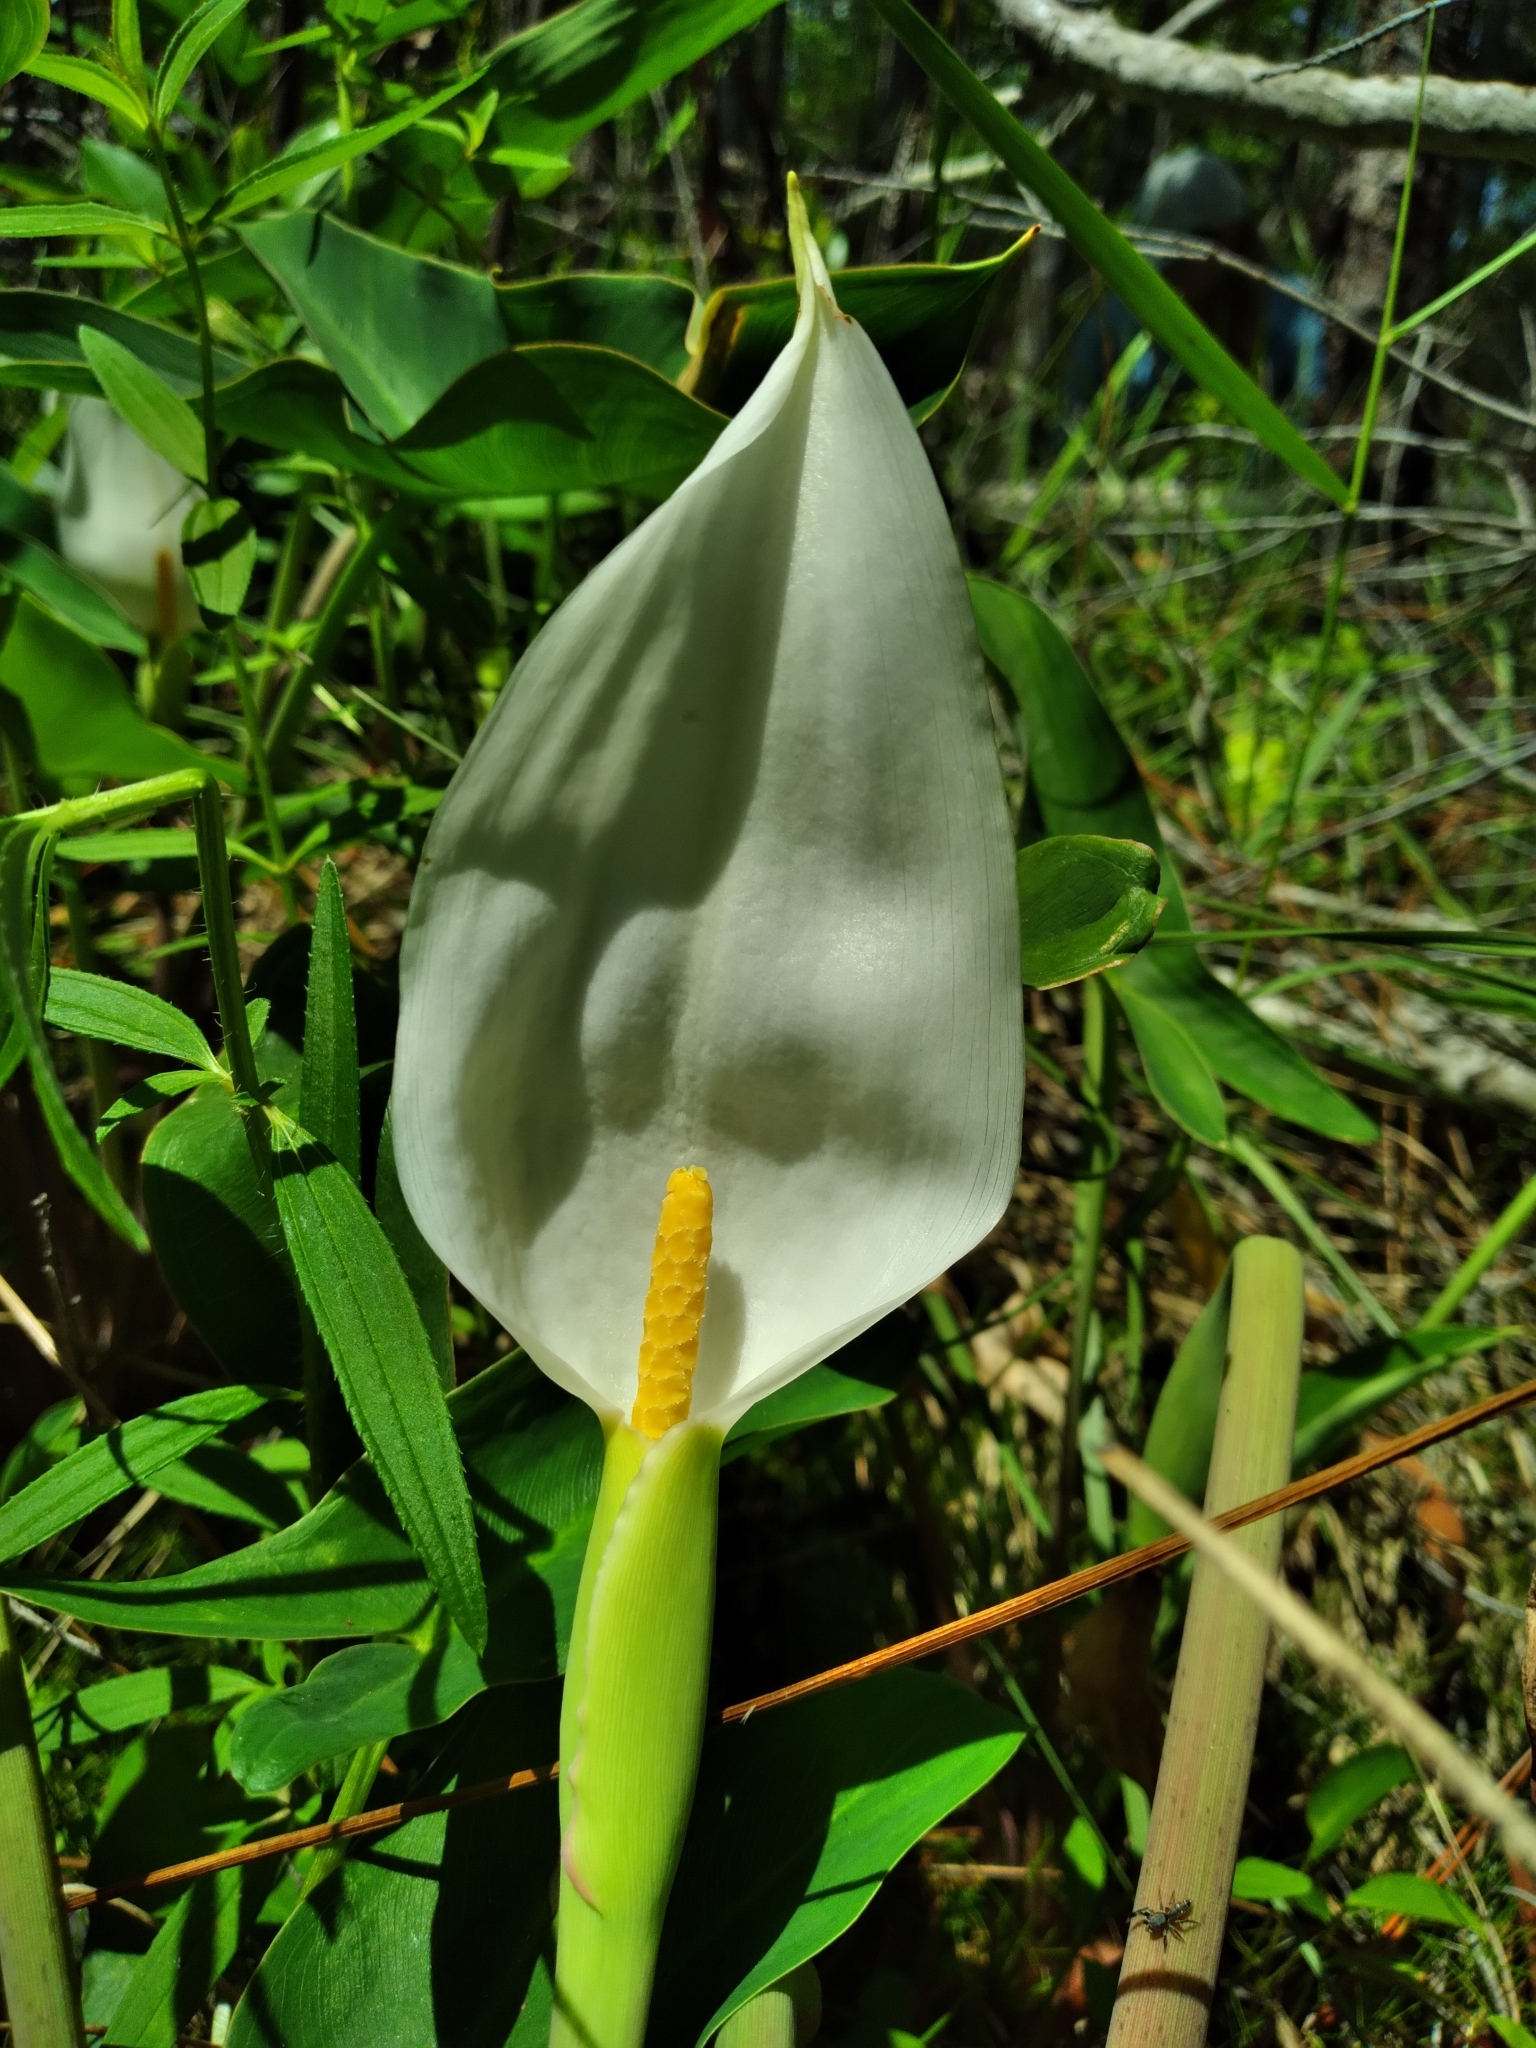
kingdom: Plantae
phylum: Tracheophyta
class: Liliopsida
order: Alismatales
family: Araceae
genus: Peltandra
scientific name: Peltandra sagittifolia
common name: White arrow arum
